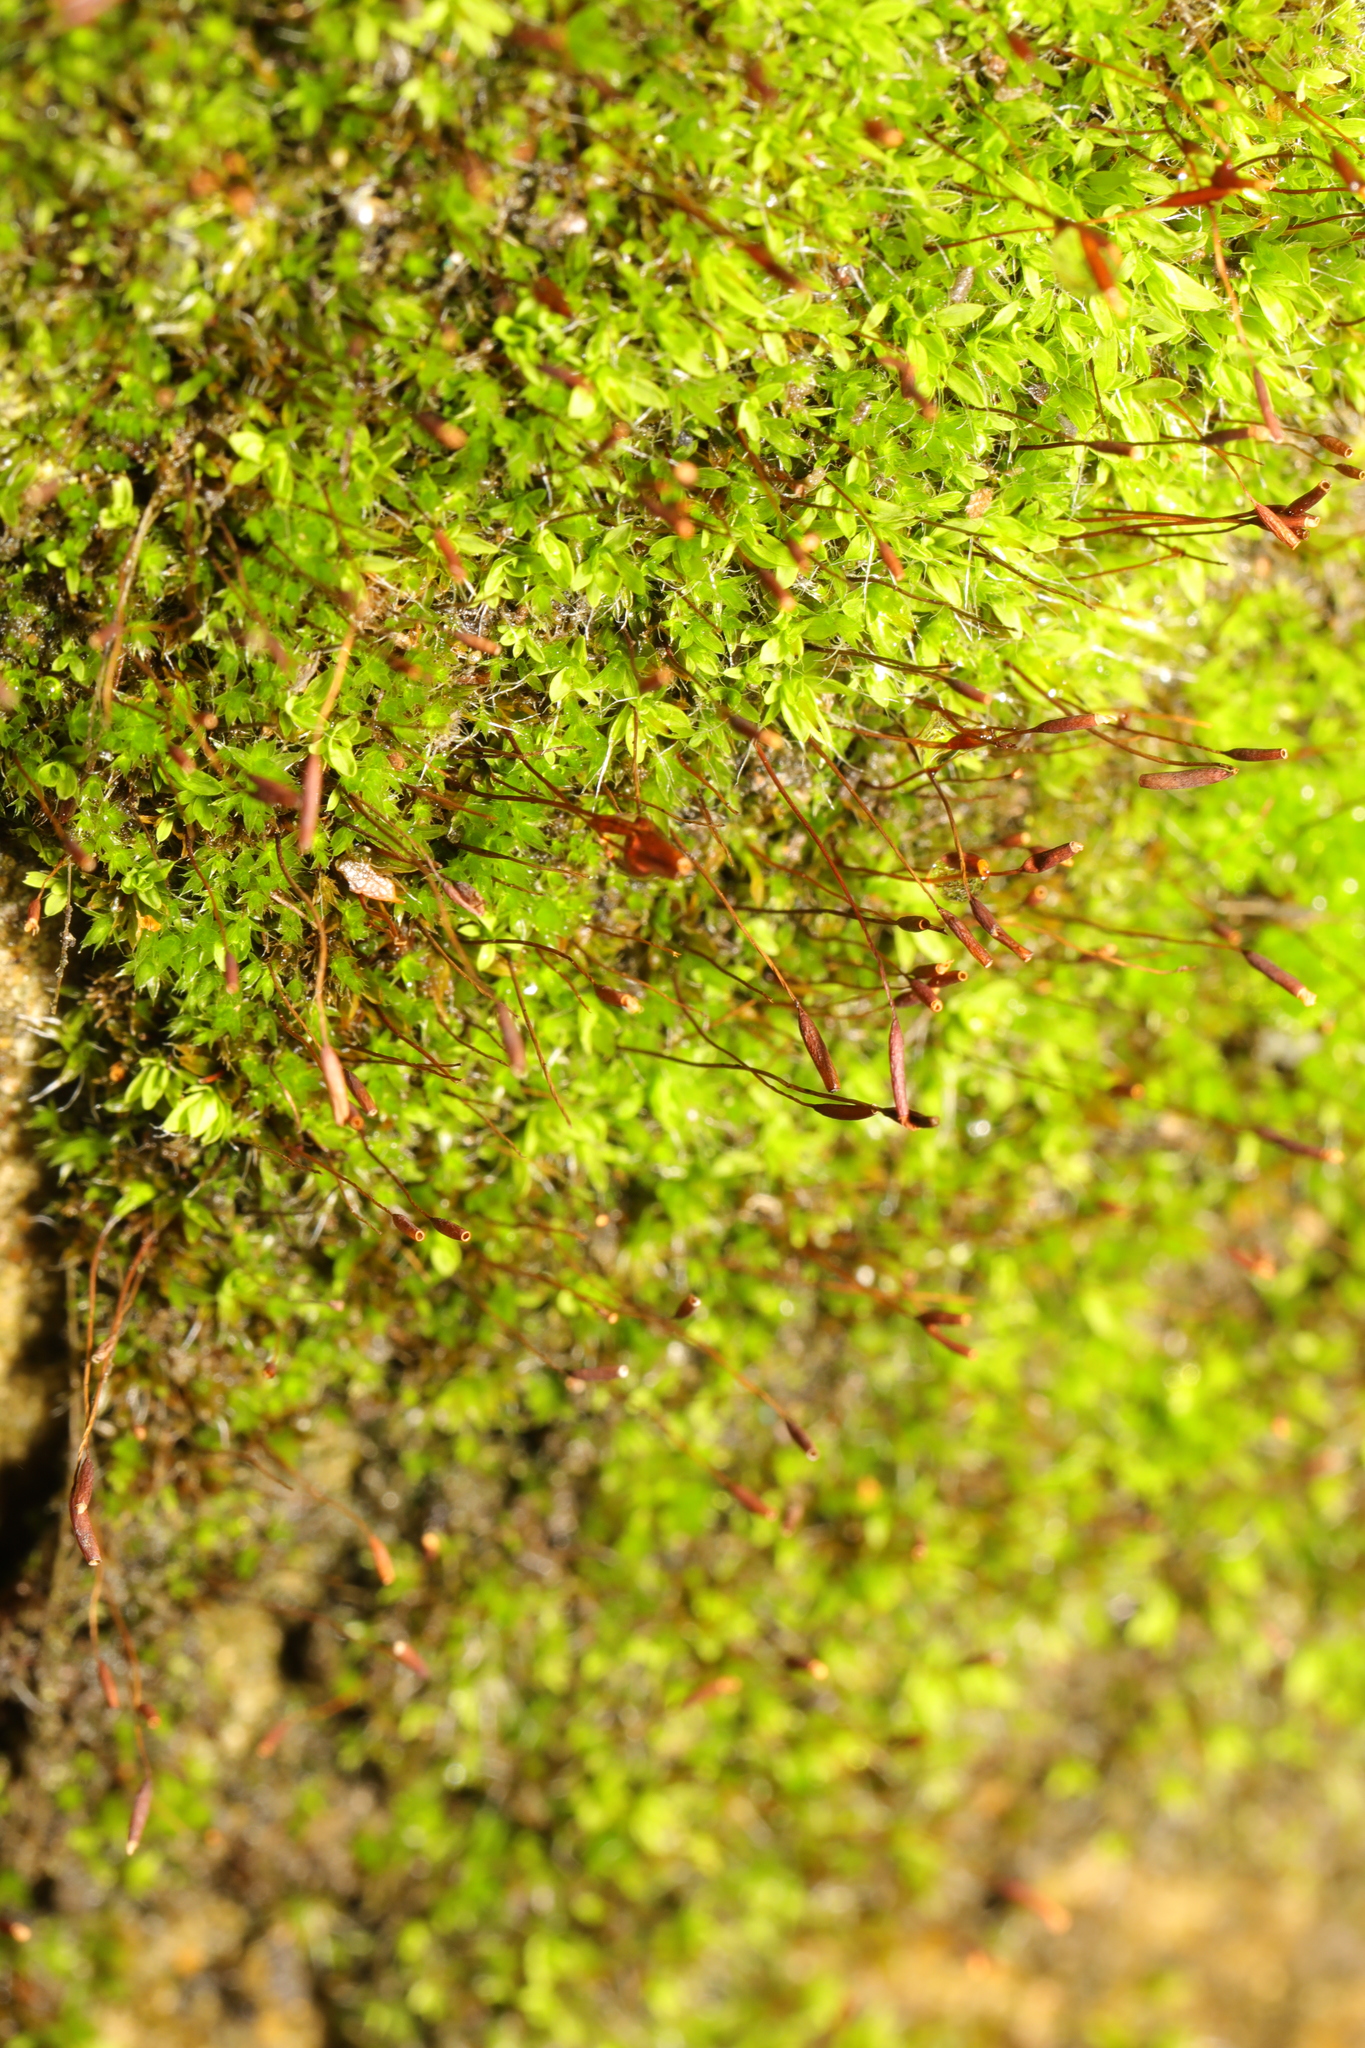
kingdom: Plantae
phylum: Bryophyta
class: Bryopsida
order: Pottiales
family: Pottiaceae
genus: Tortula
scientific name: Tortula muralis
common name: Wall screw-moss
